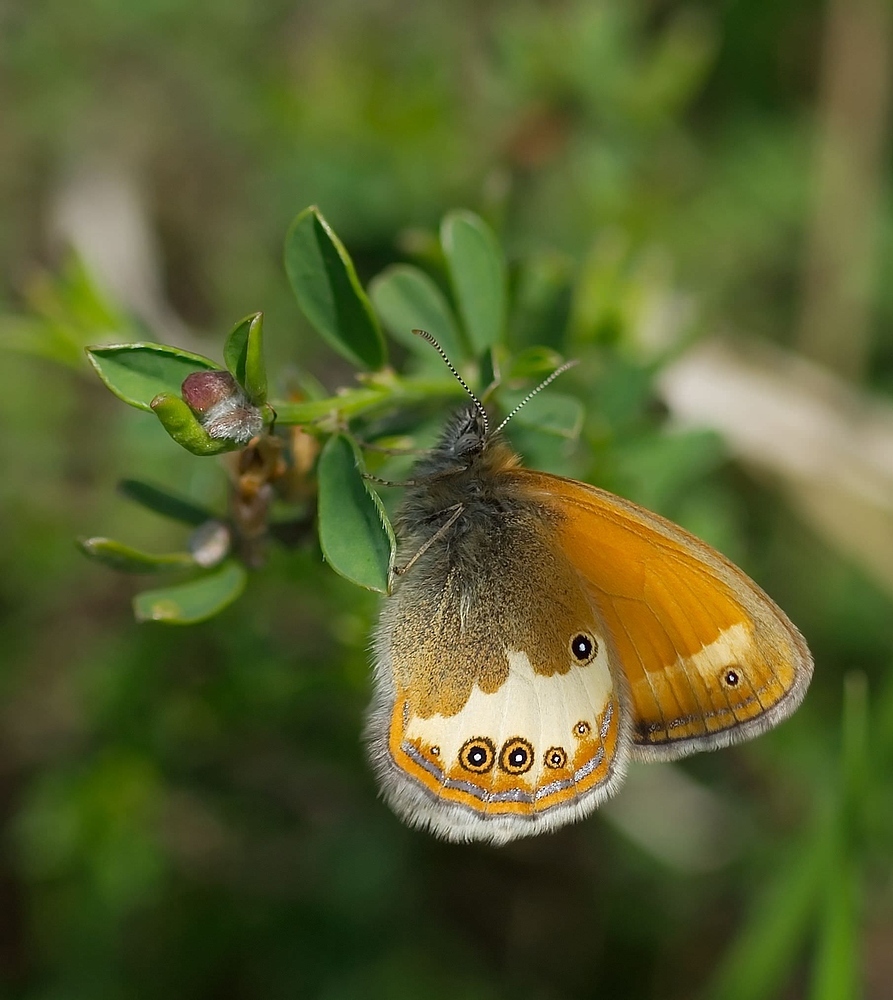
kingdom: Animalia
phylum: Arthropoda
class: Insecta
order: Lepidoptera
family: Nymphalidae
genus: Coenonympha
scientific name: Coenonympha arcania
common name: Pearly heath
